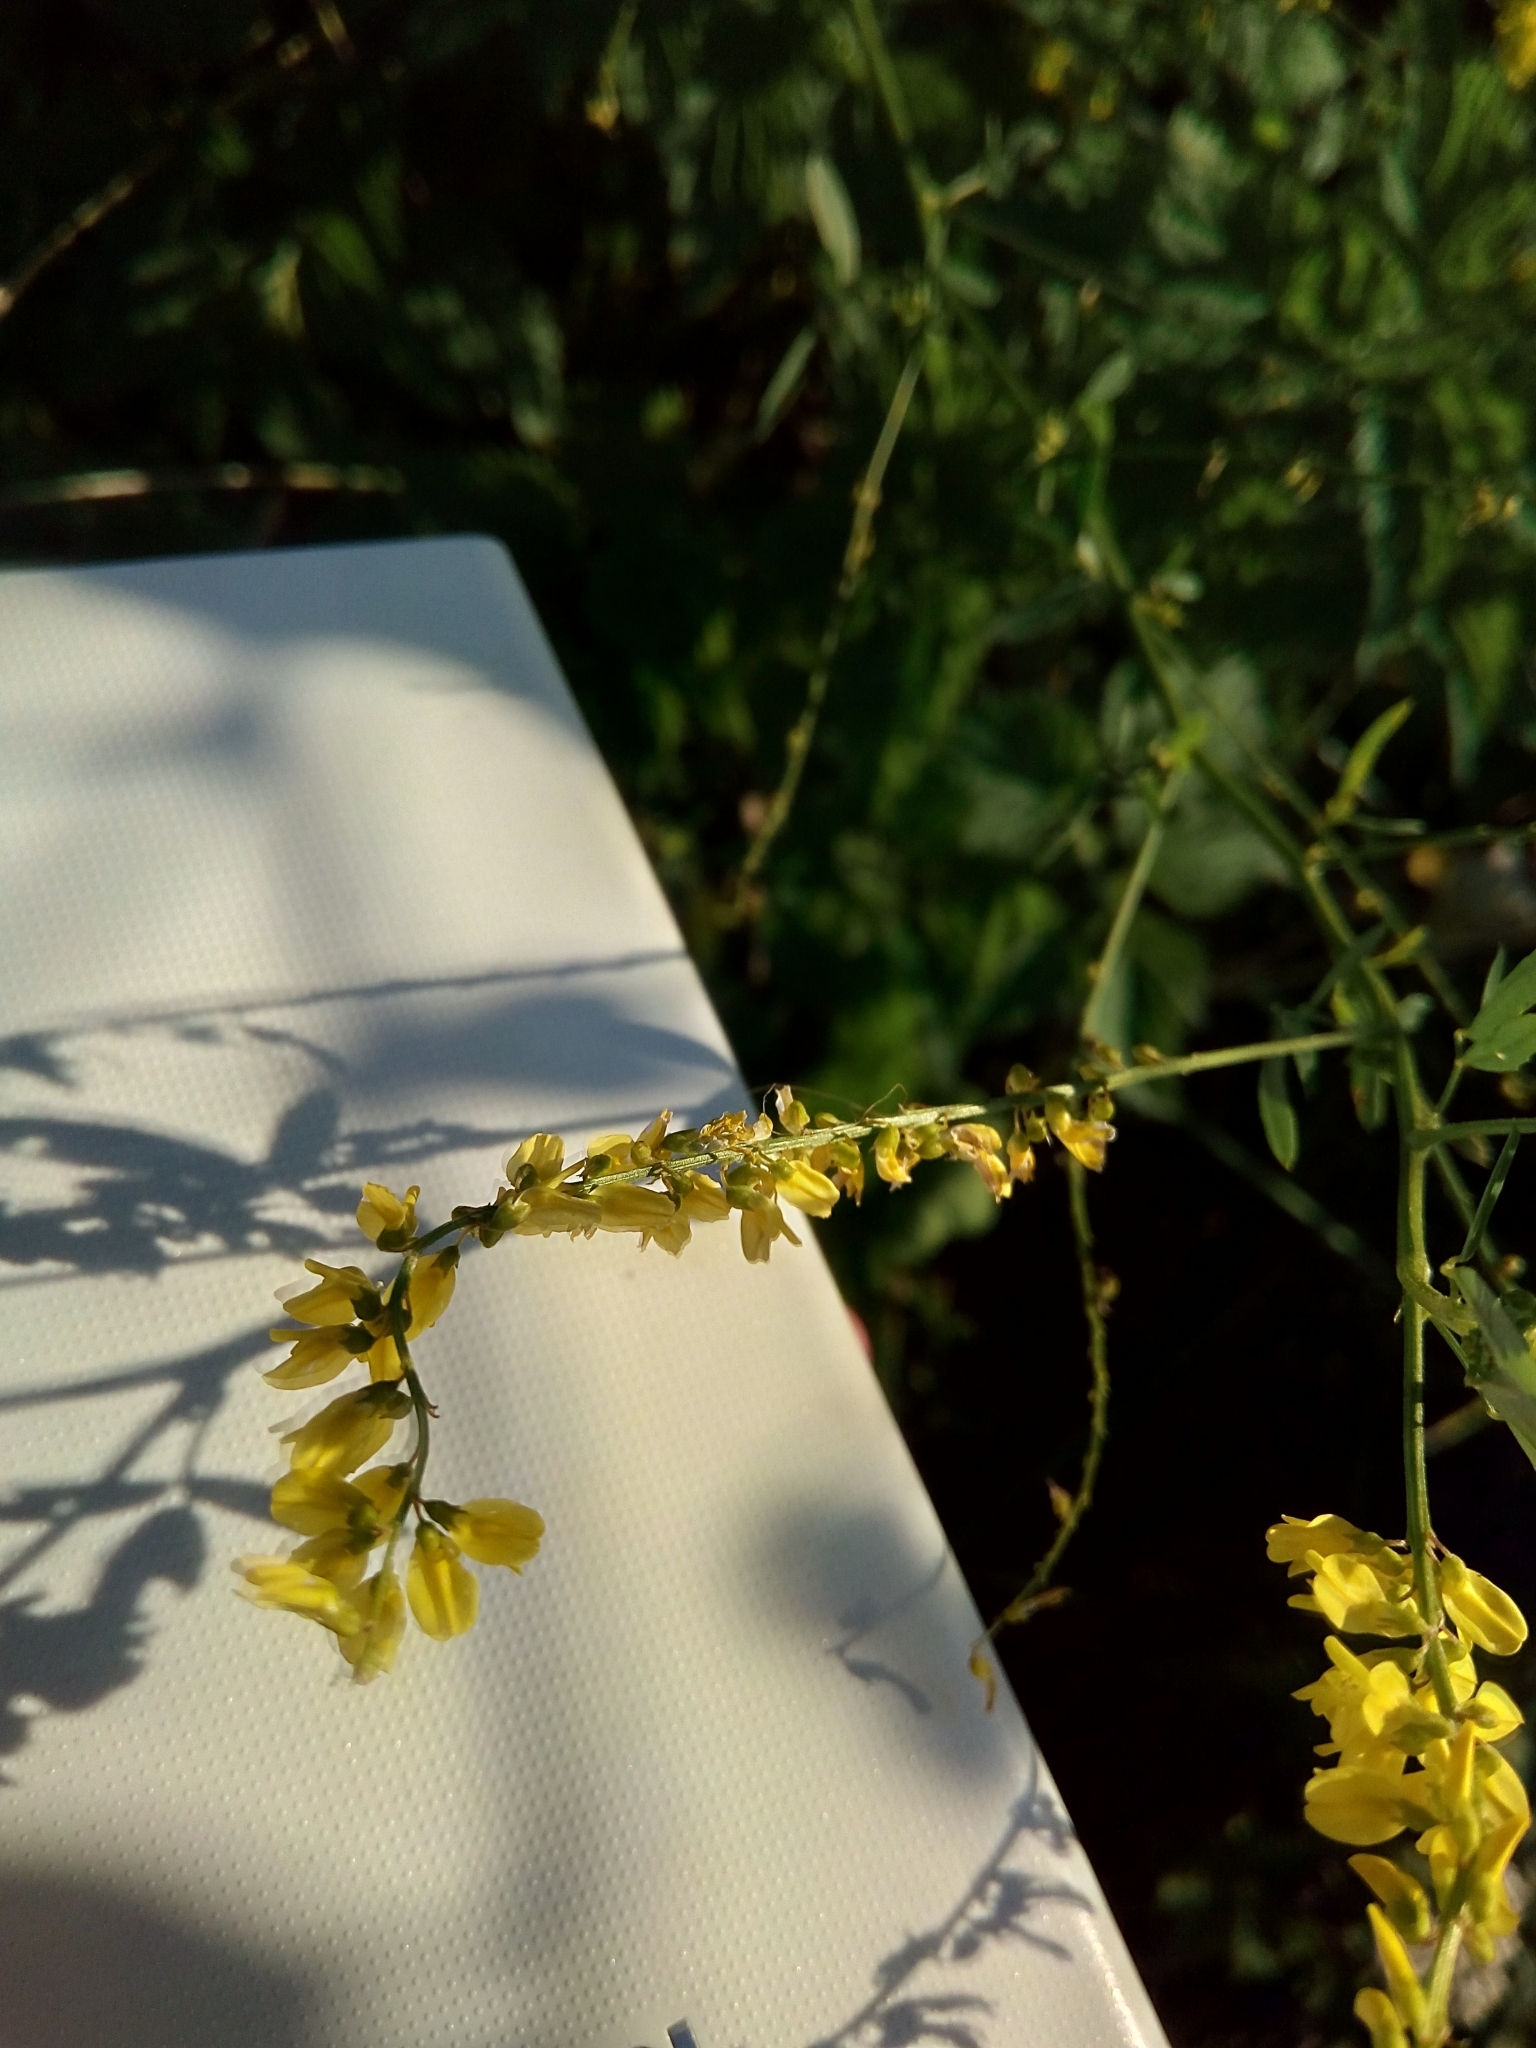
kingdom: Plantae
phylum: Tracheophyta
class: Magnoliopsida
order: Fabales
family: Fabaceae
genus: Melilotus
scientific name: Melilotus officinalis
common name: Sweetclover
